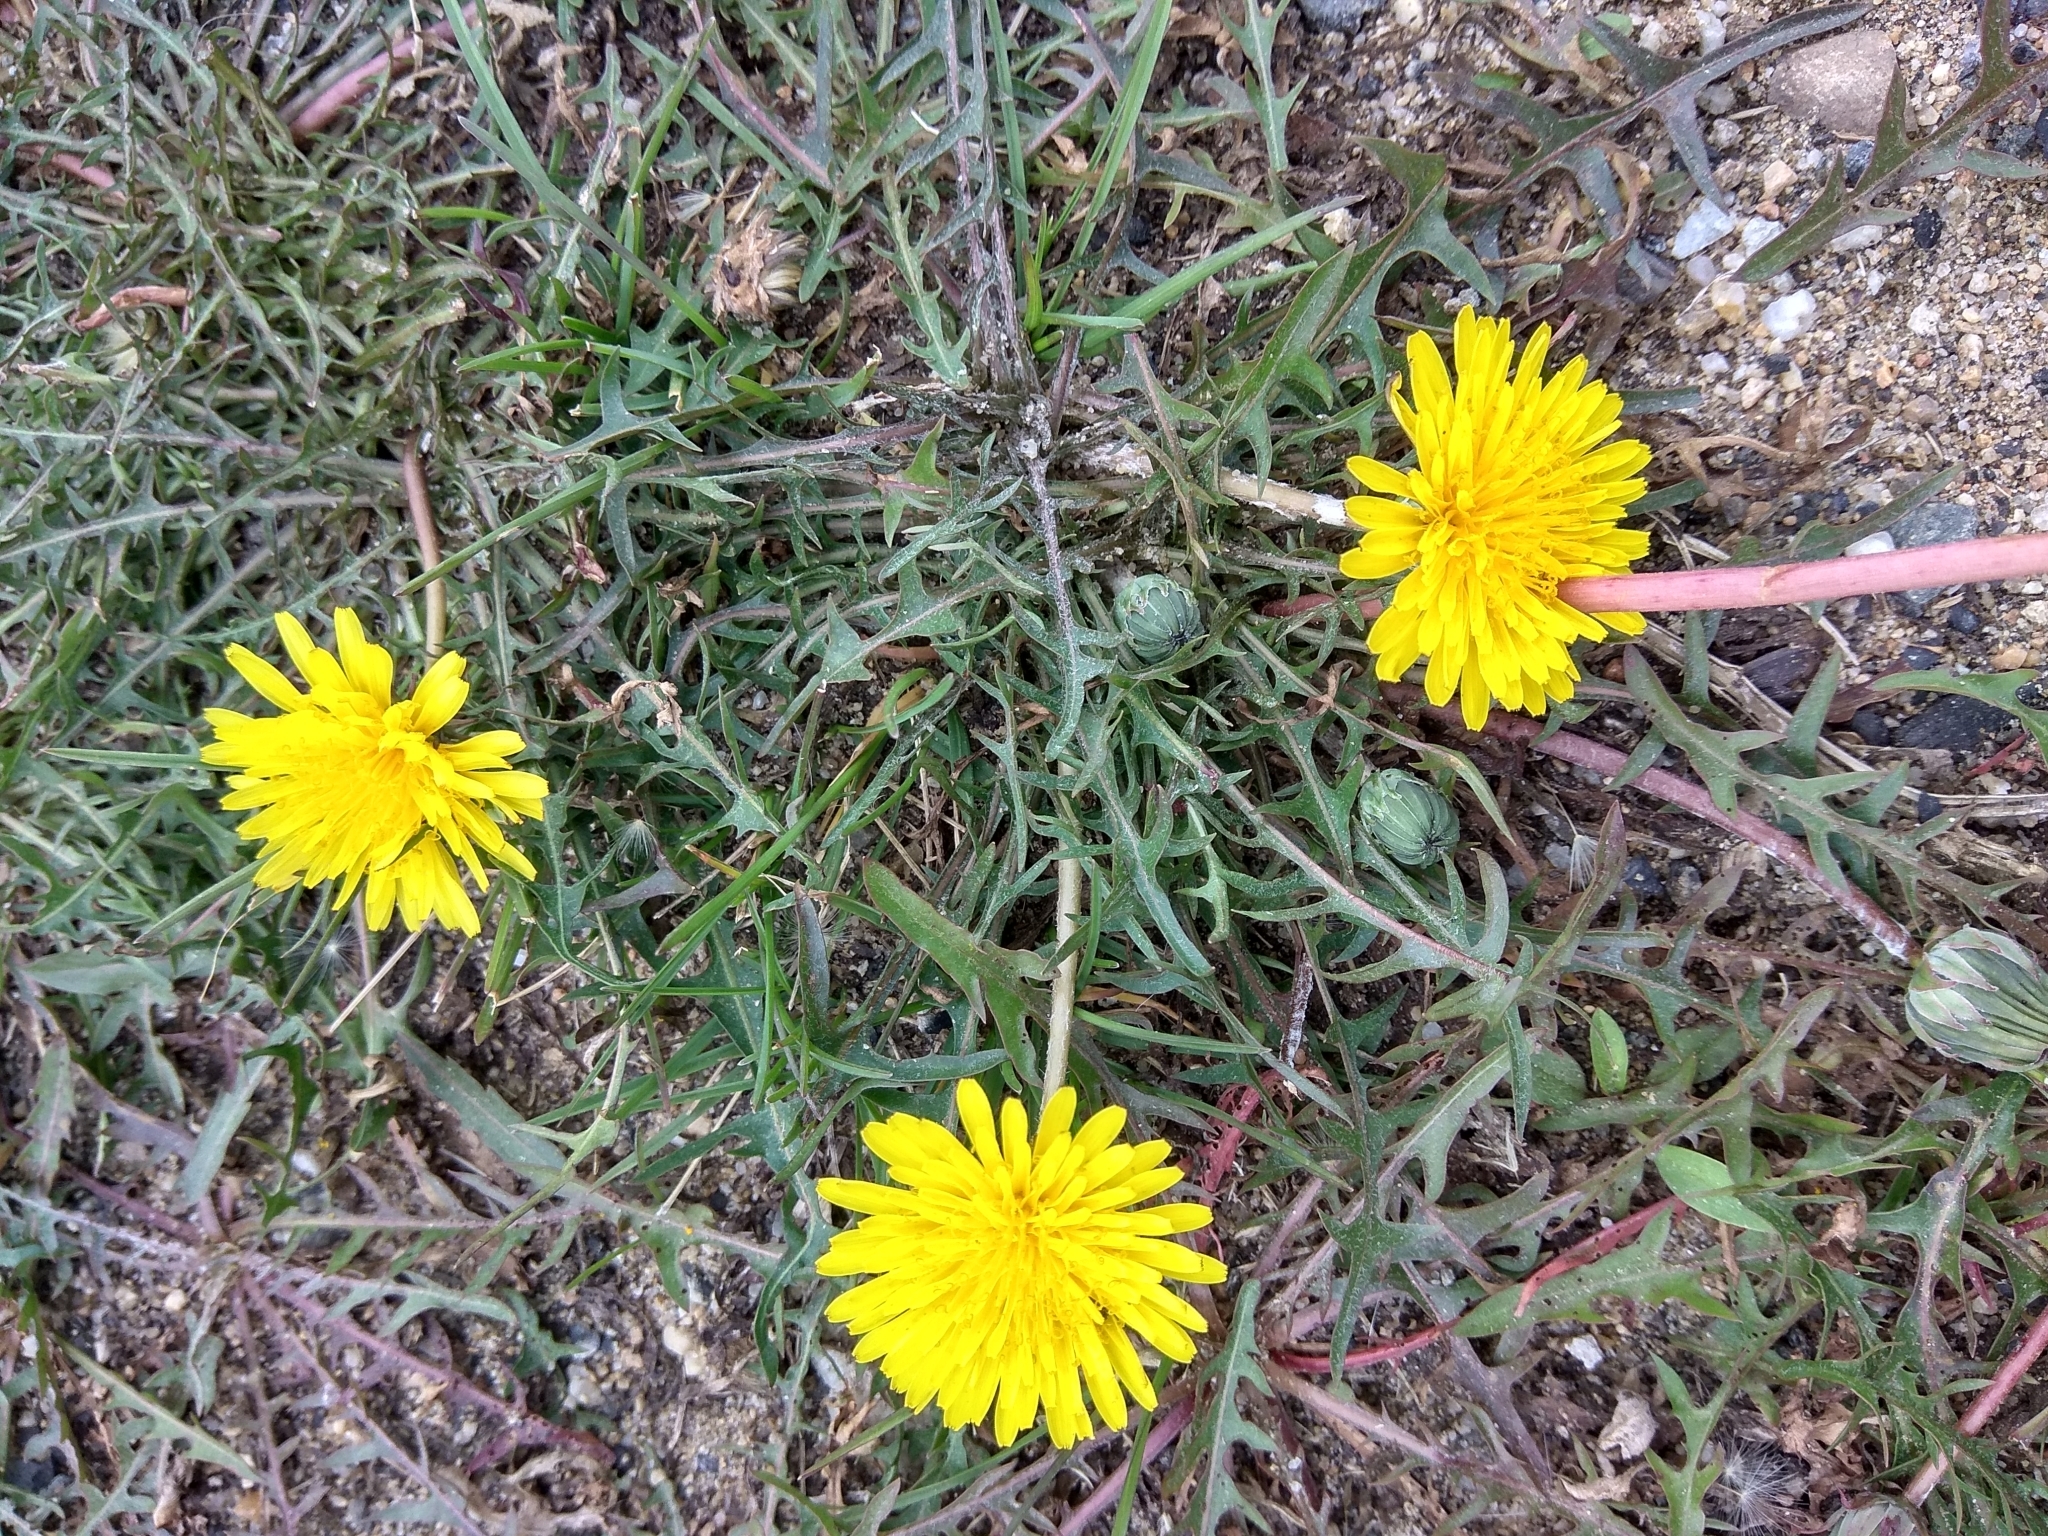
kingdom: Plantae
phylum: Tracheophyta
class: Magnoliopsida
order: Asterales
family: Asteraceae
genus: Taraxacum
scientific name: Taraxacum longicorne
